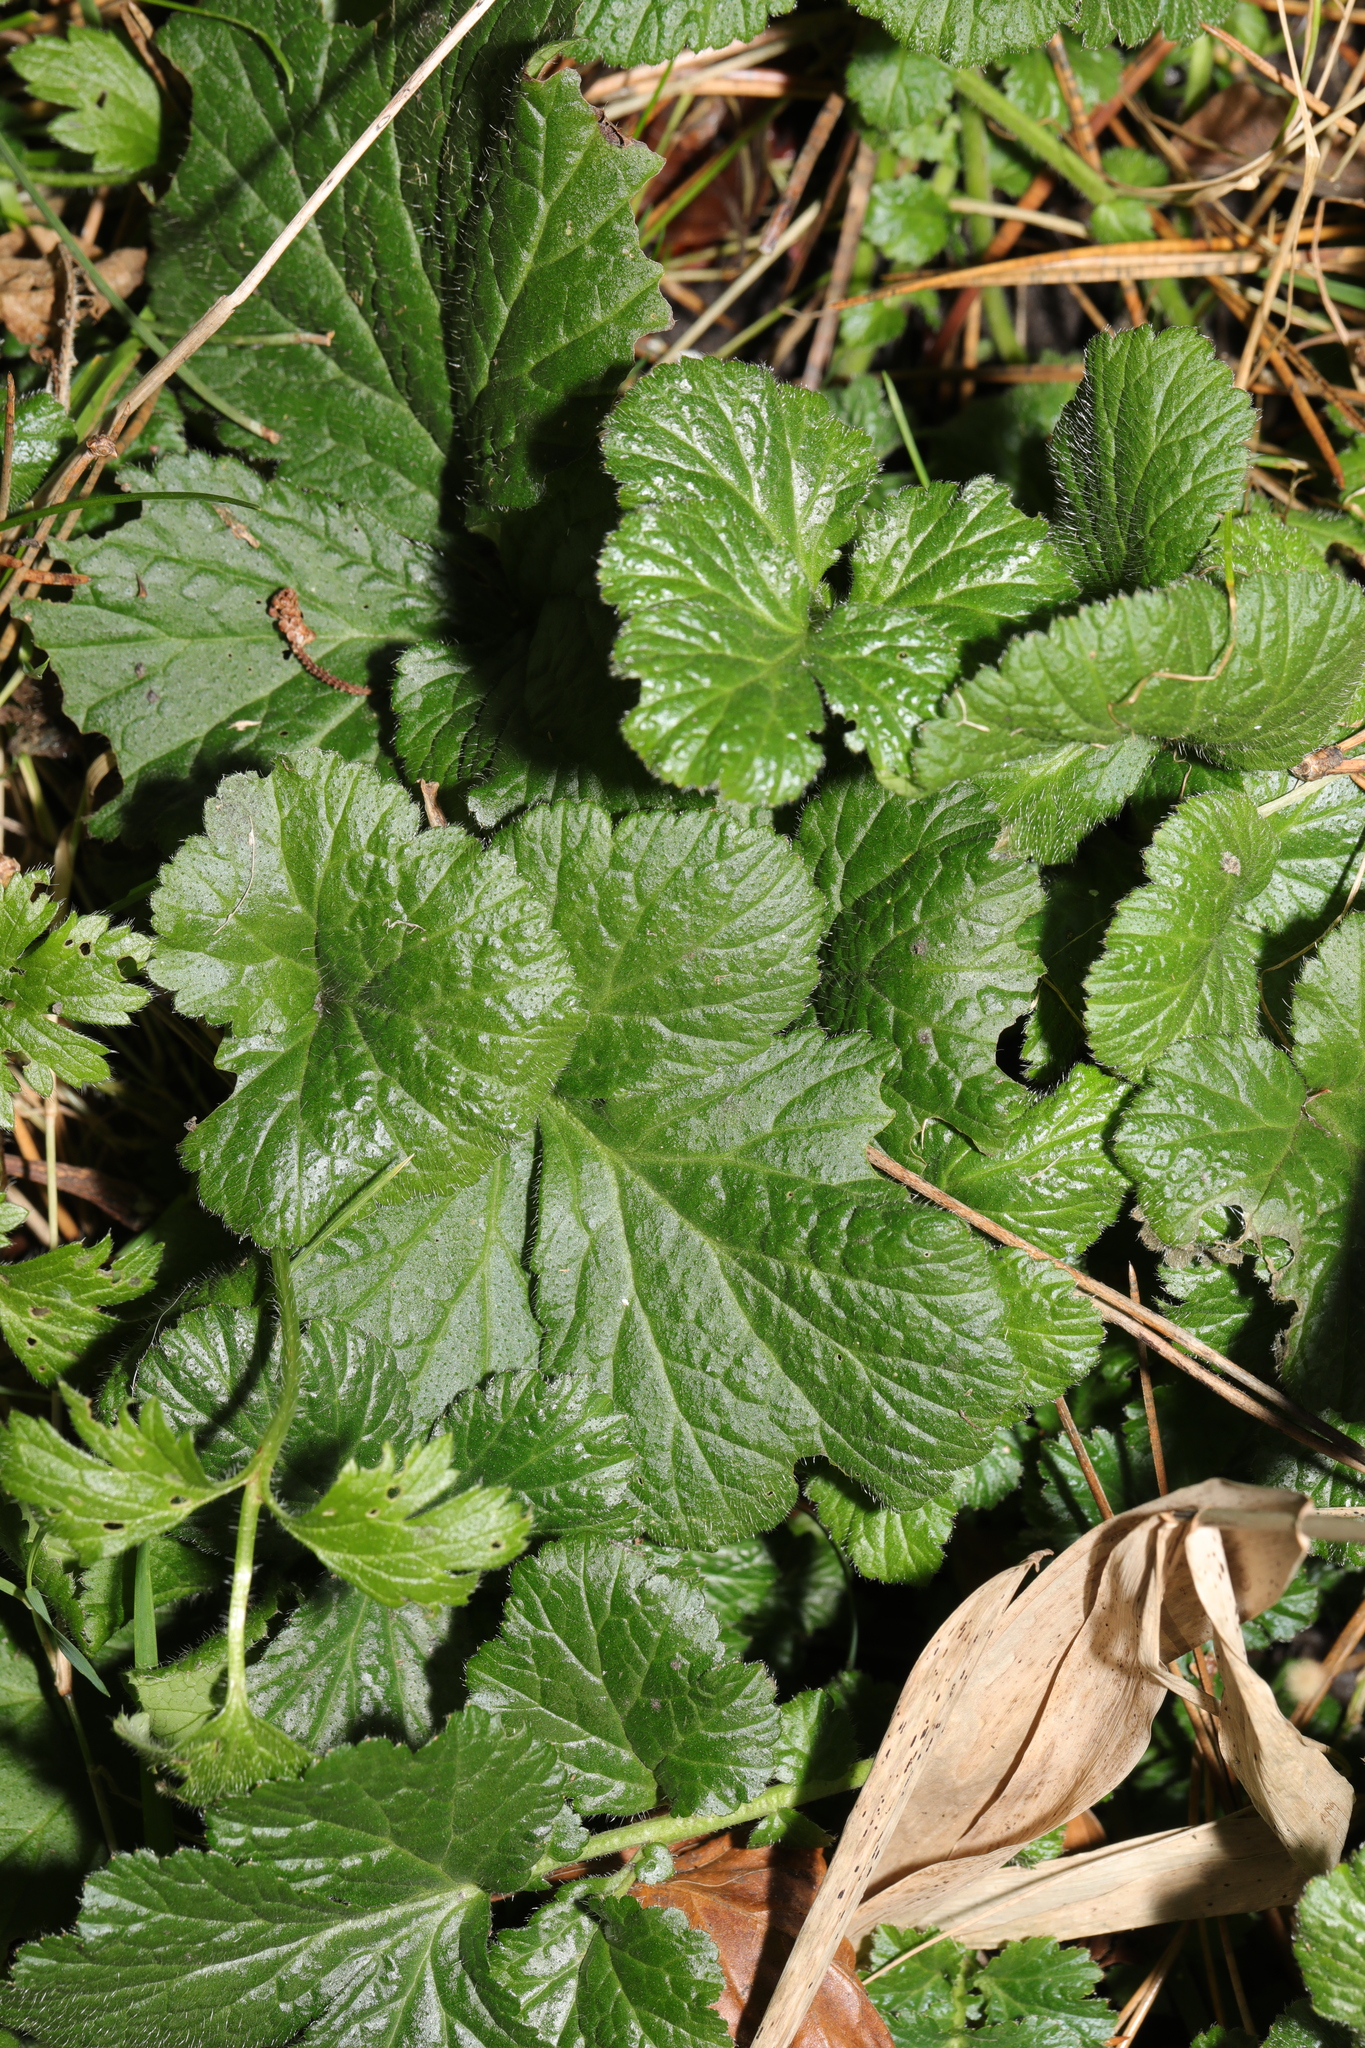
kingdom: Plantae
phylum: Tracheophyta
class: Magnoliopsida
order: Rosales
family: Rosaceae
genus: Geum
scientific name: Geum urbanum
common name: Wood avens
